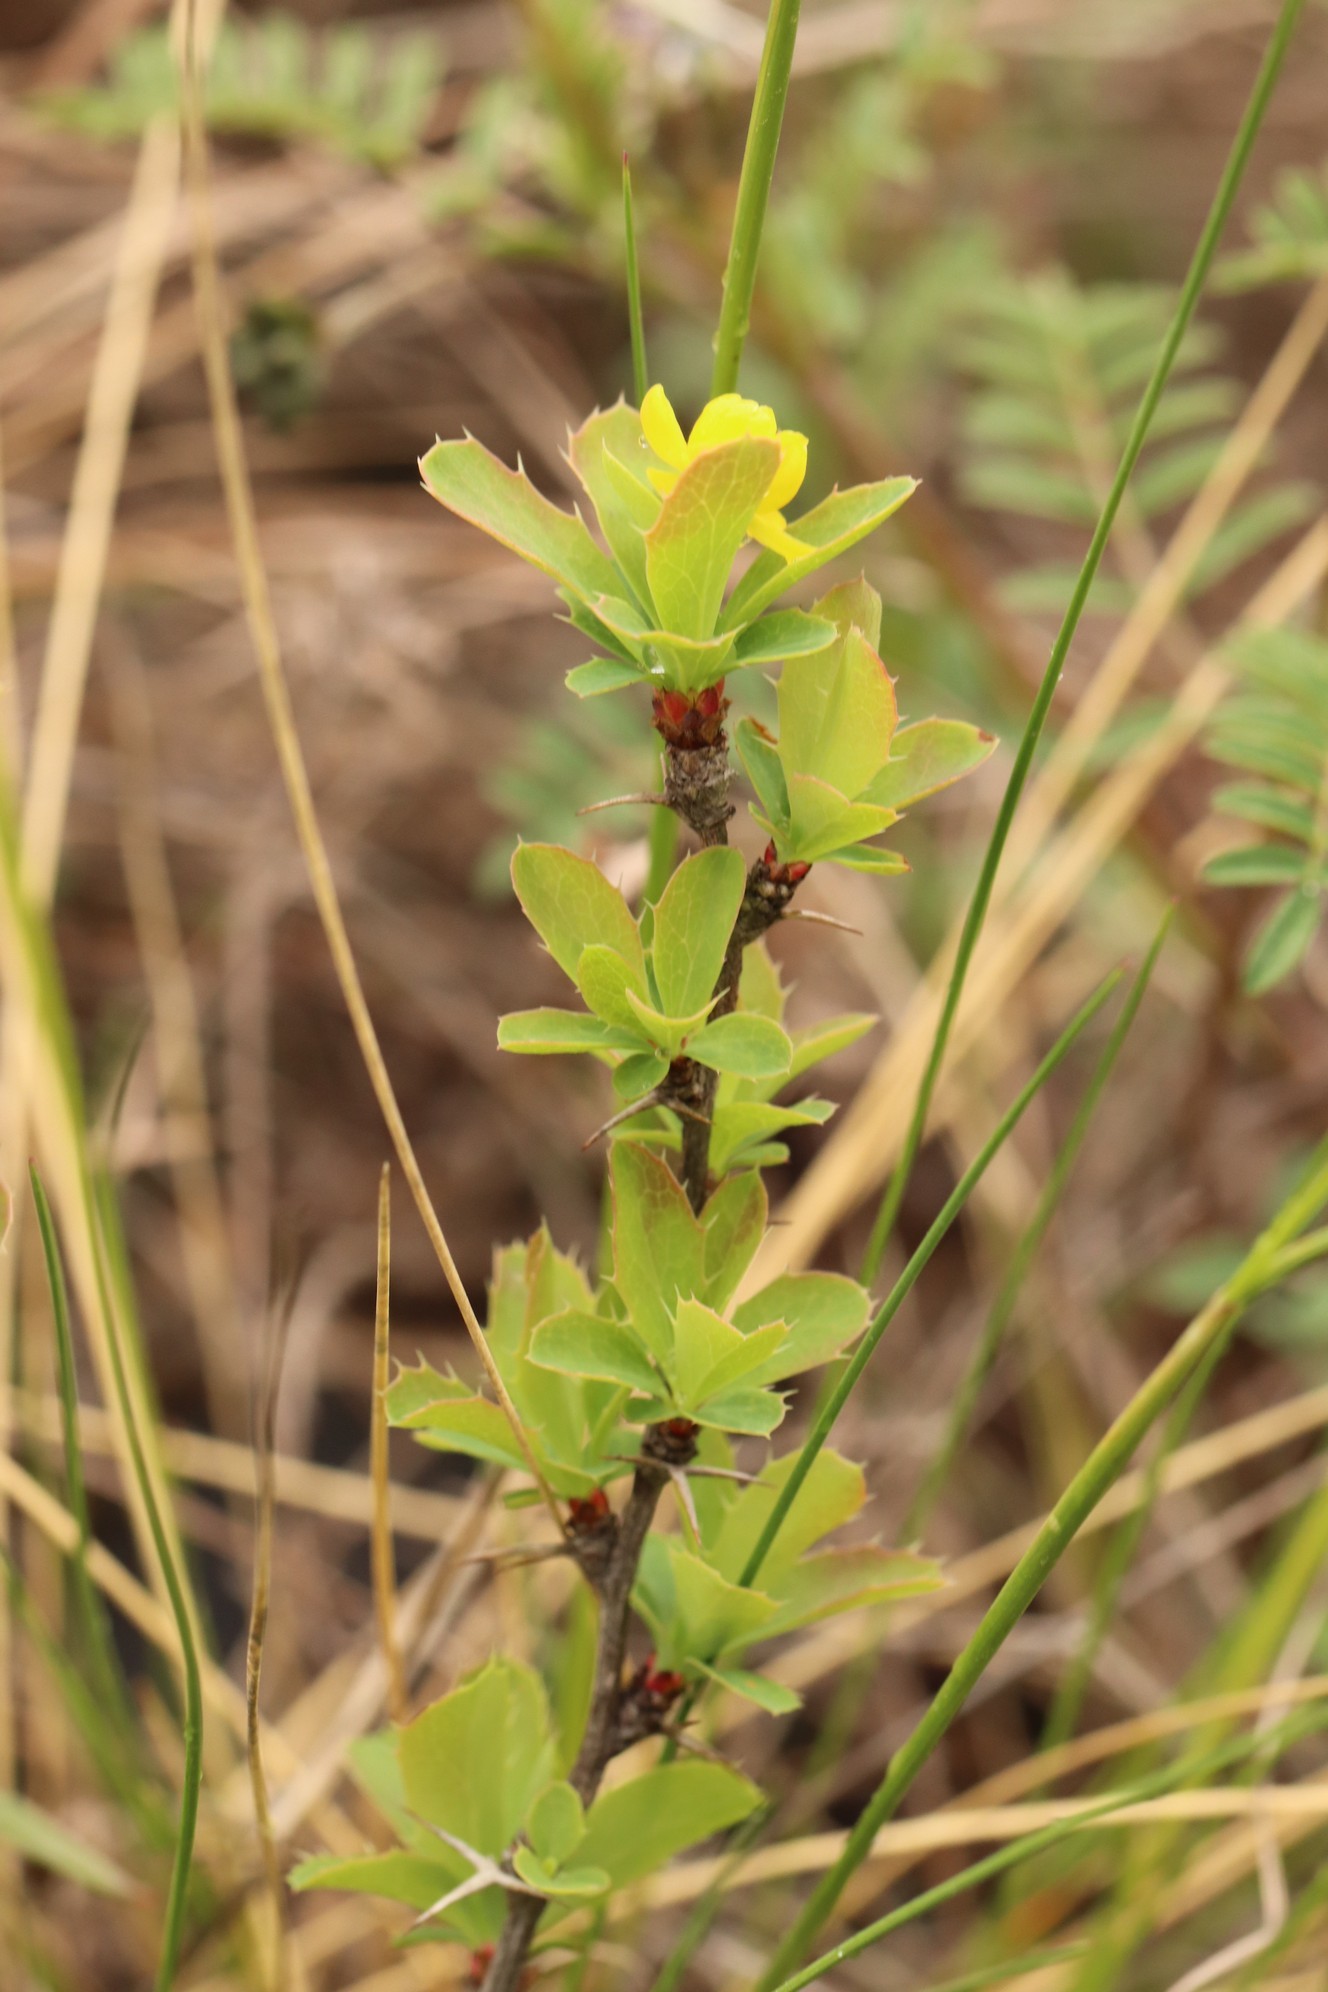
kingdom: Plantae
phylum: Tracheophyta
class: Magnoliopsida
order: Ranunculales
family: Berberidaceae
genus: Berberis
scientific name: Berberis sibirica
